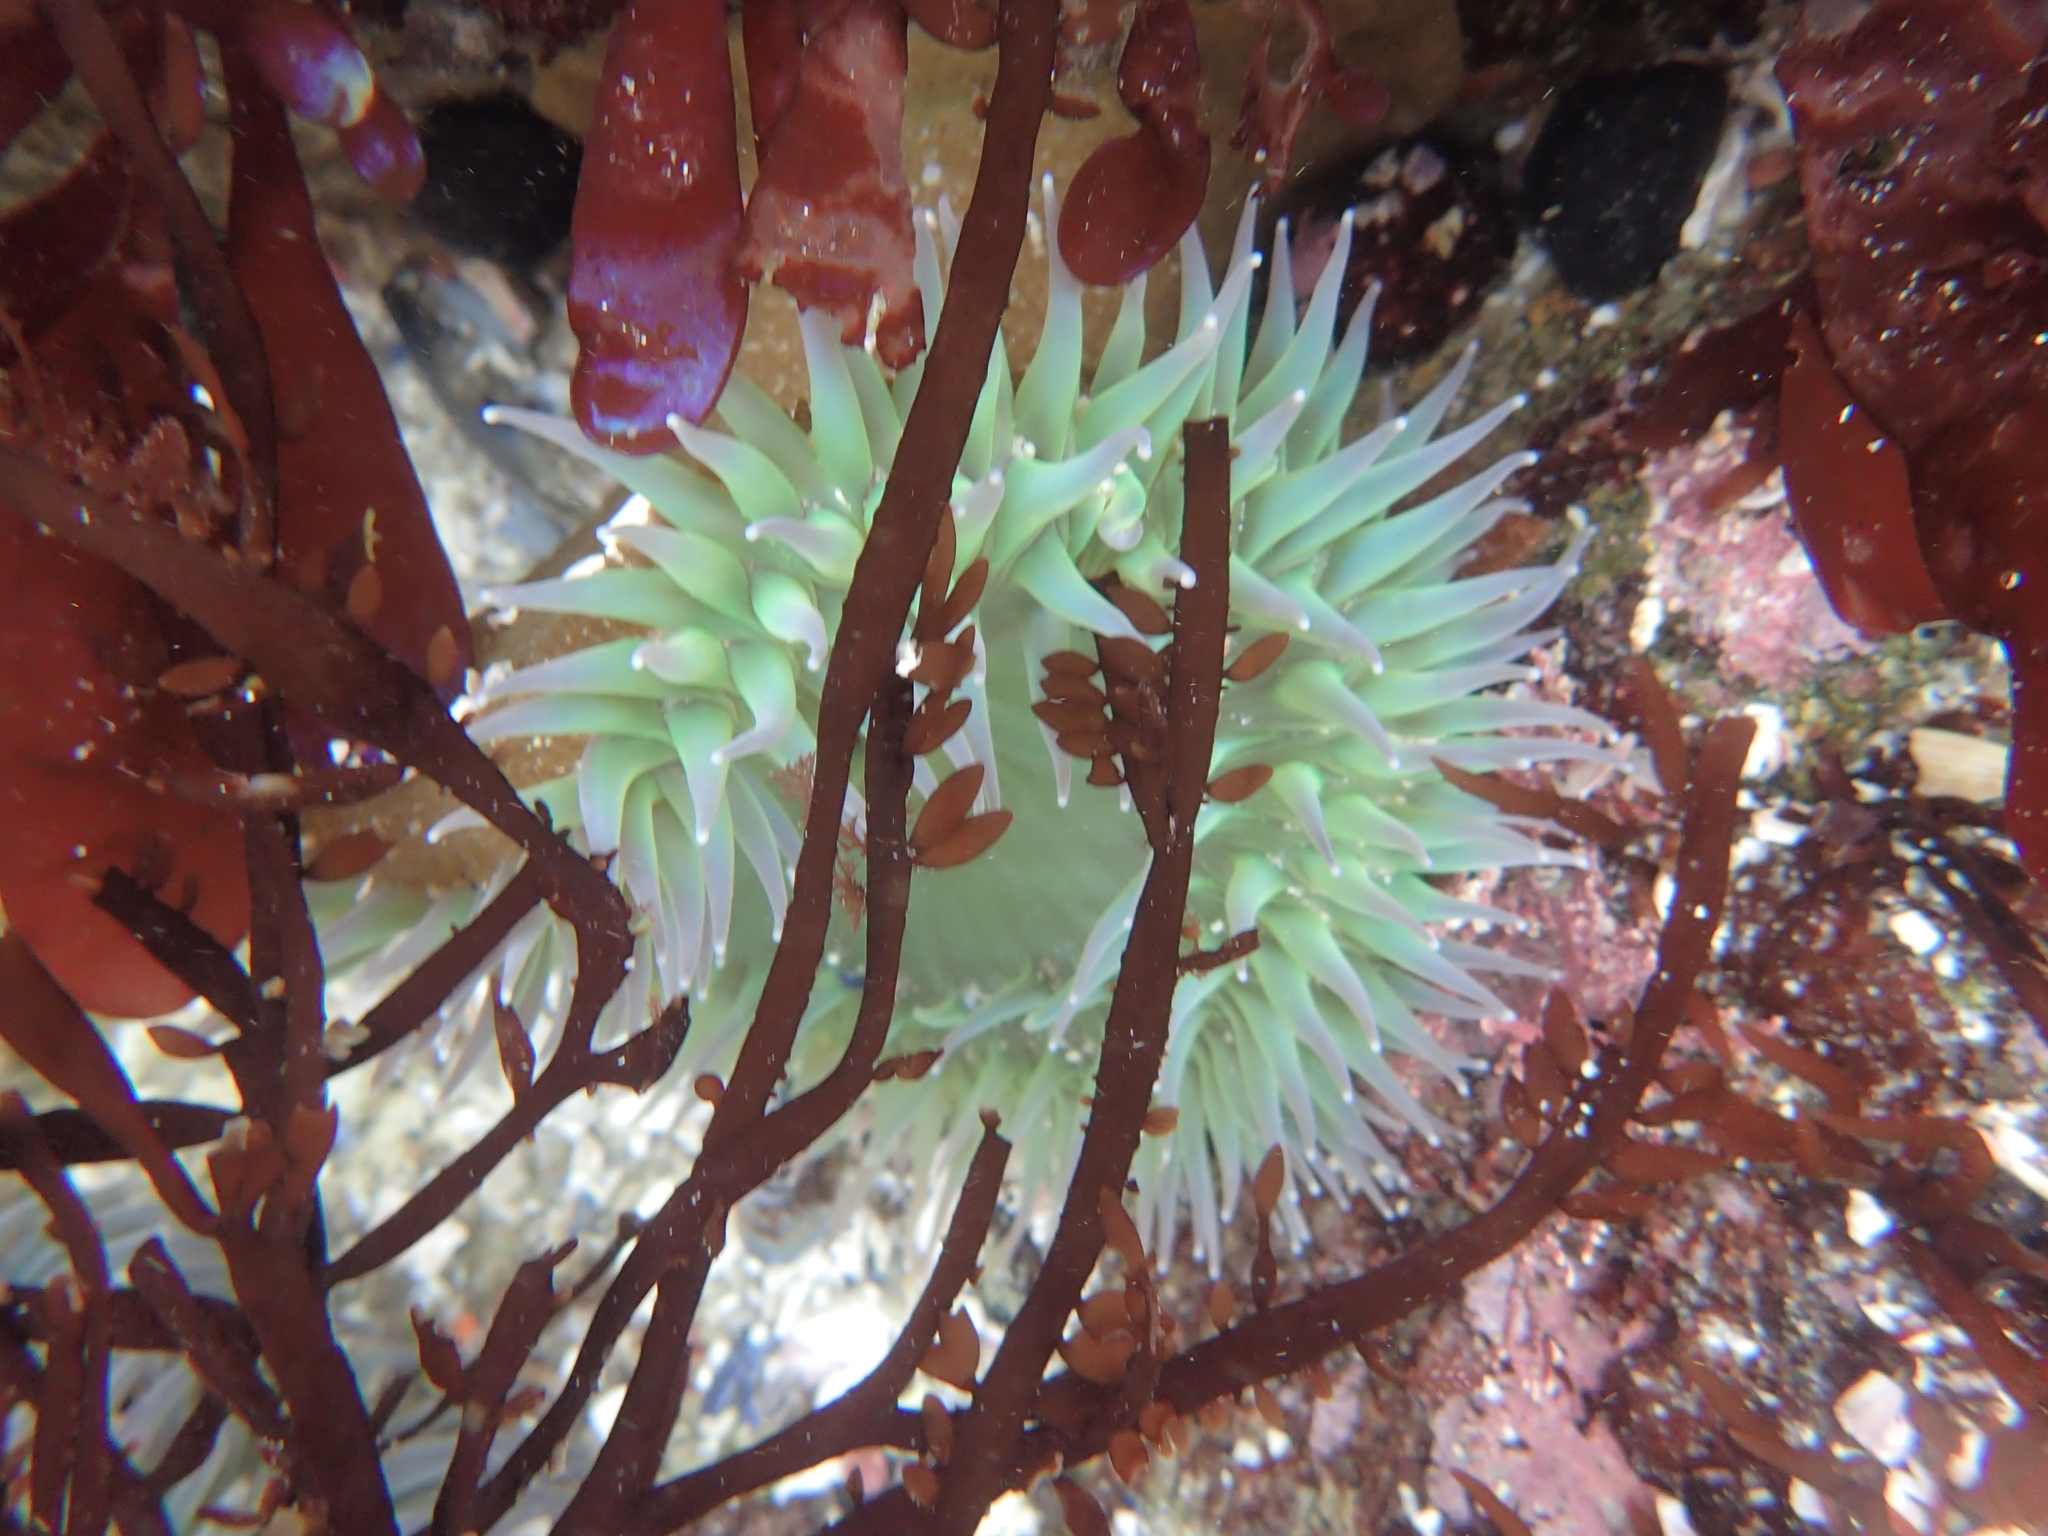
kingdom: Animalia
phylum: Cnidaria
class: Anthozoa
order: Actiniaria
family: Actiniidae
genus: Anthopleura
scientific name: Anthopleura xanthogrammica
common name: Giant green anemone
